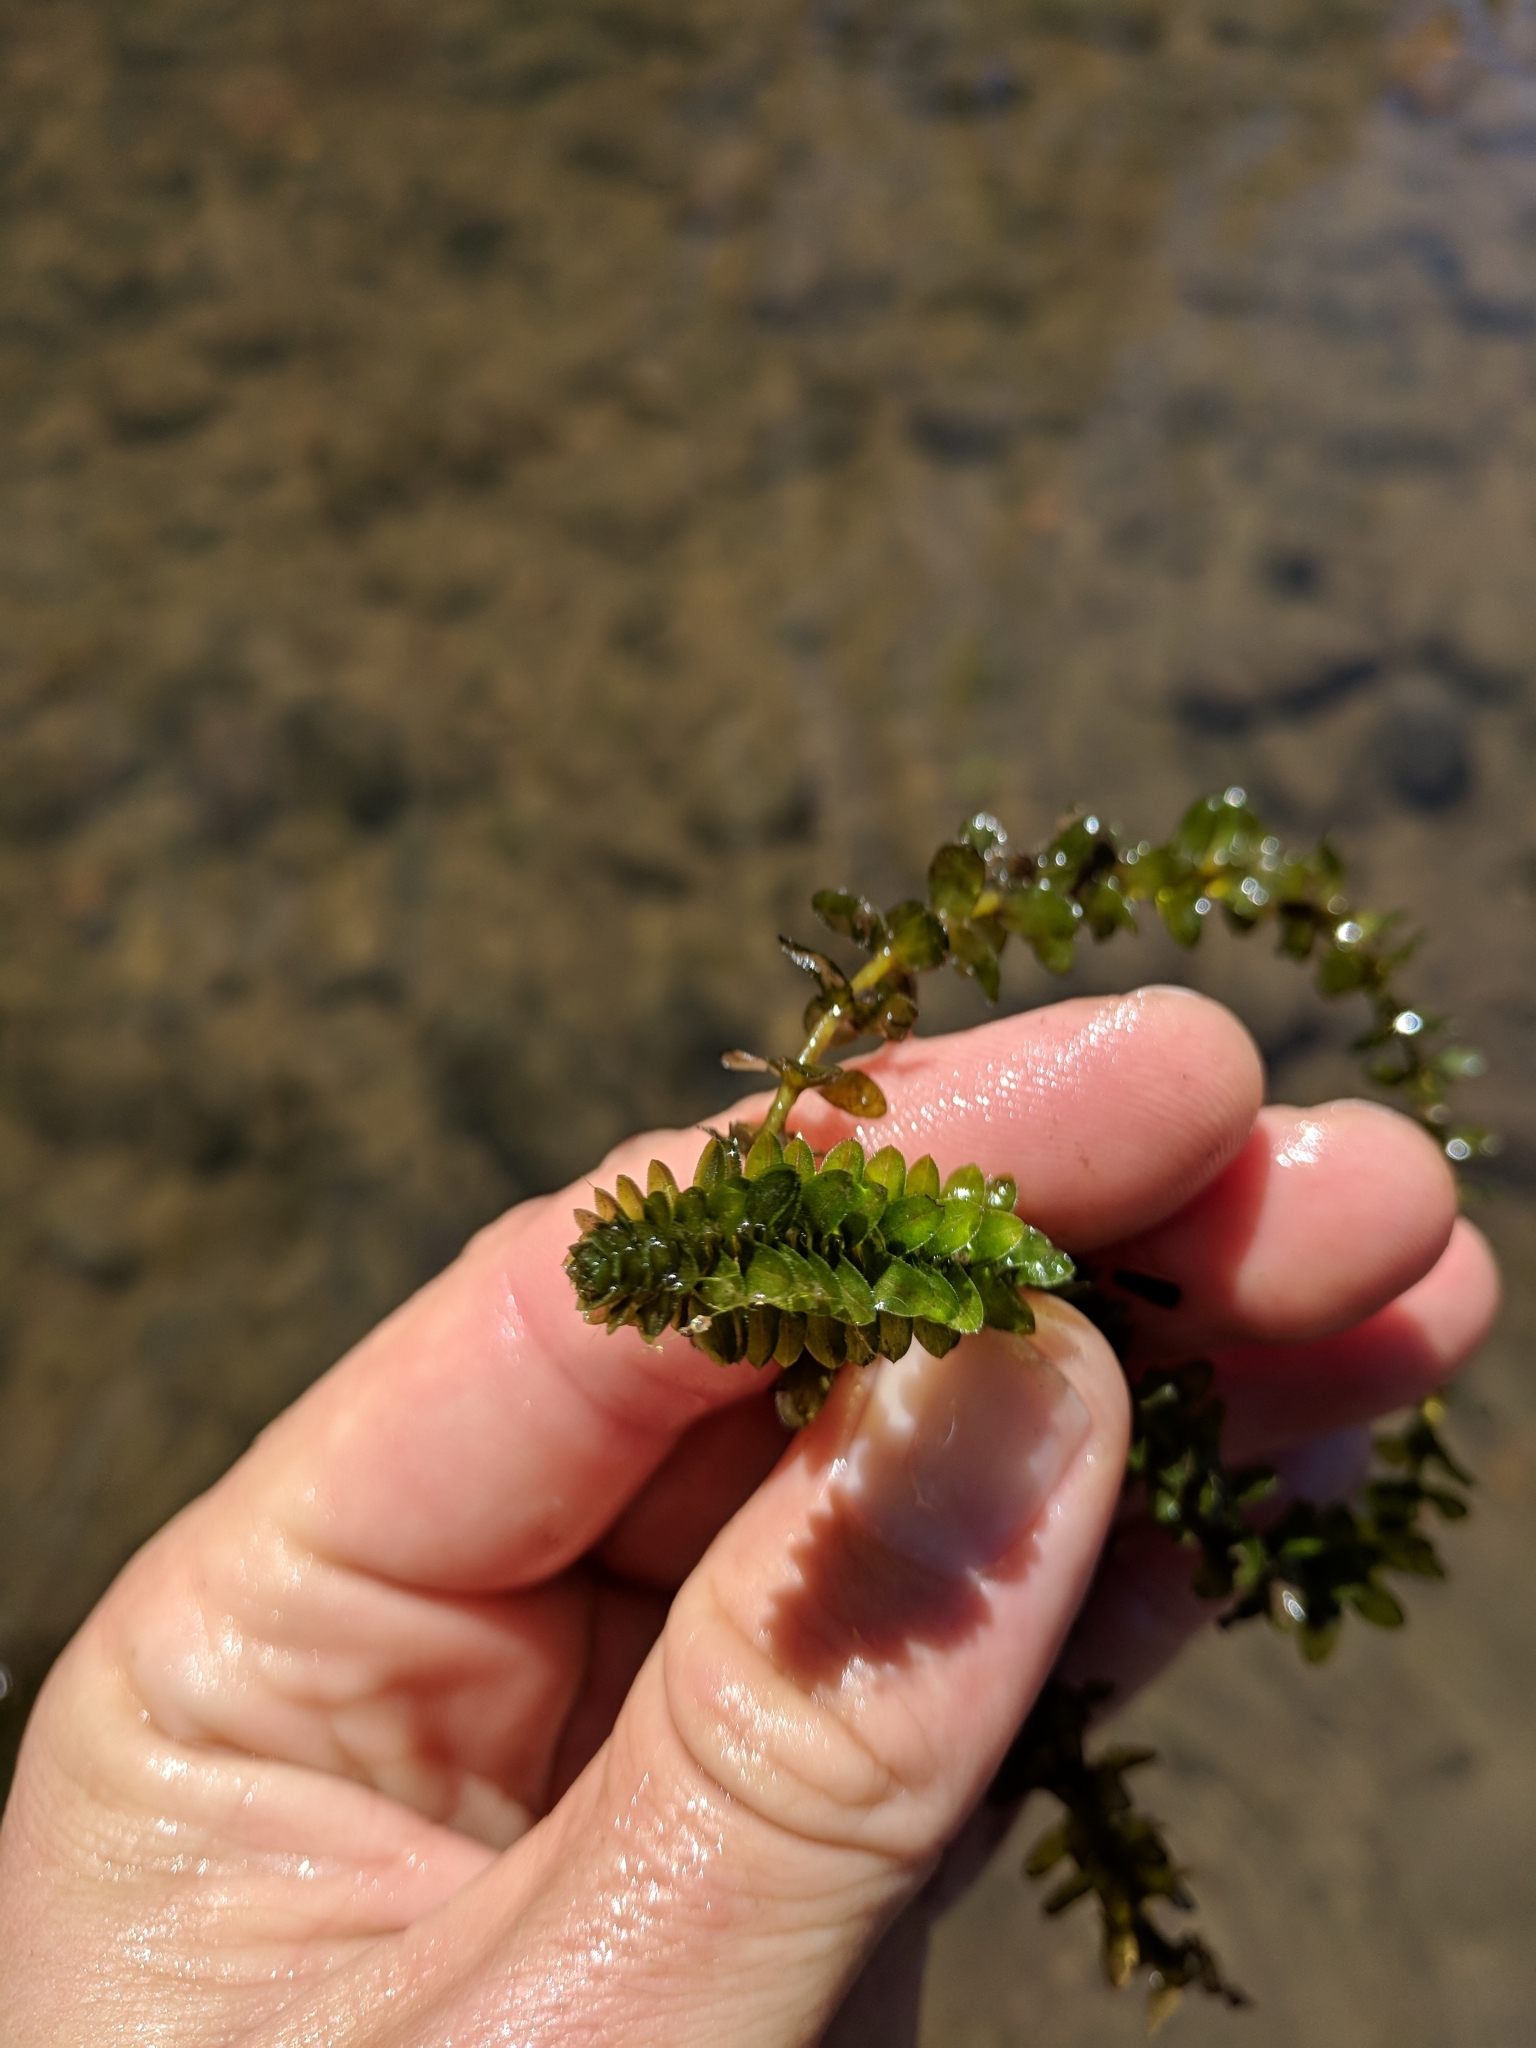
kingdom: Plantae
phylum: Tracheophyta
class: Liliopsida
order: Alismatales
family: Hydrocharitaceae
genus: Elodea
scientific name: Elodea canadensis
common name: Canadian waterweed
